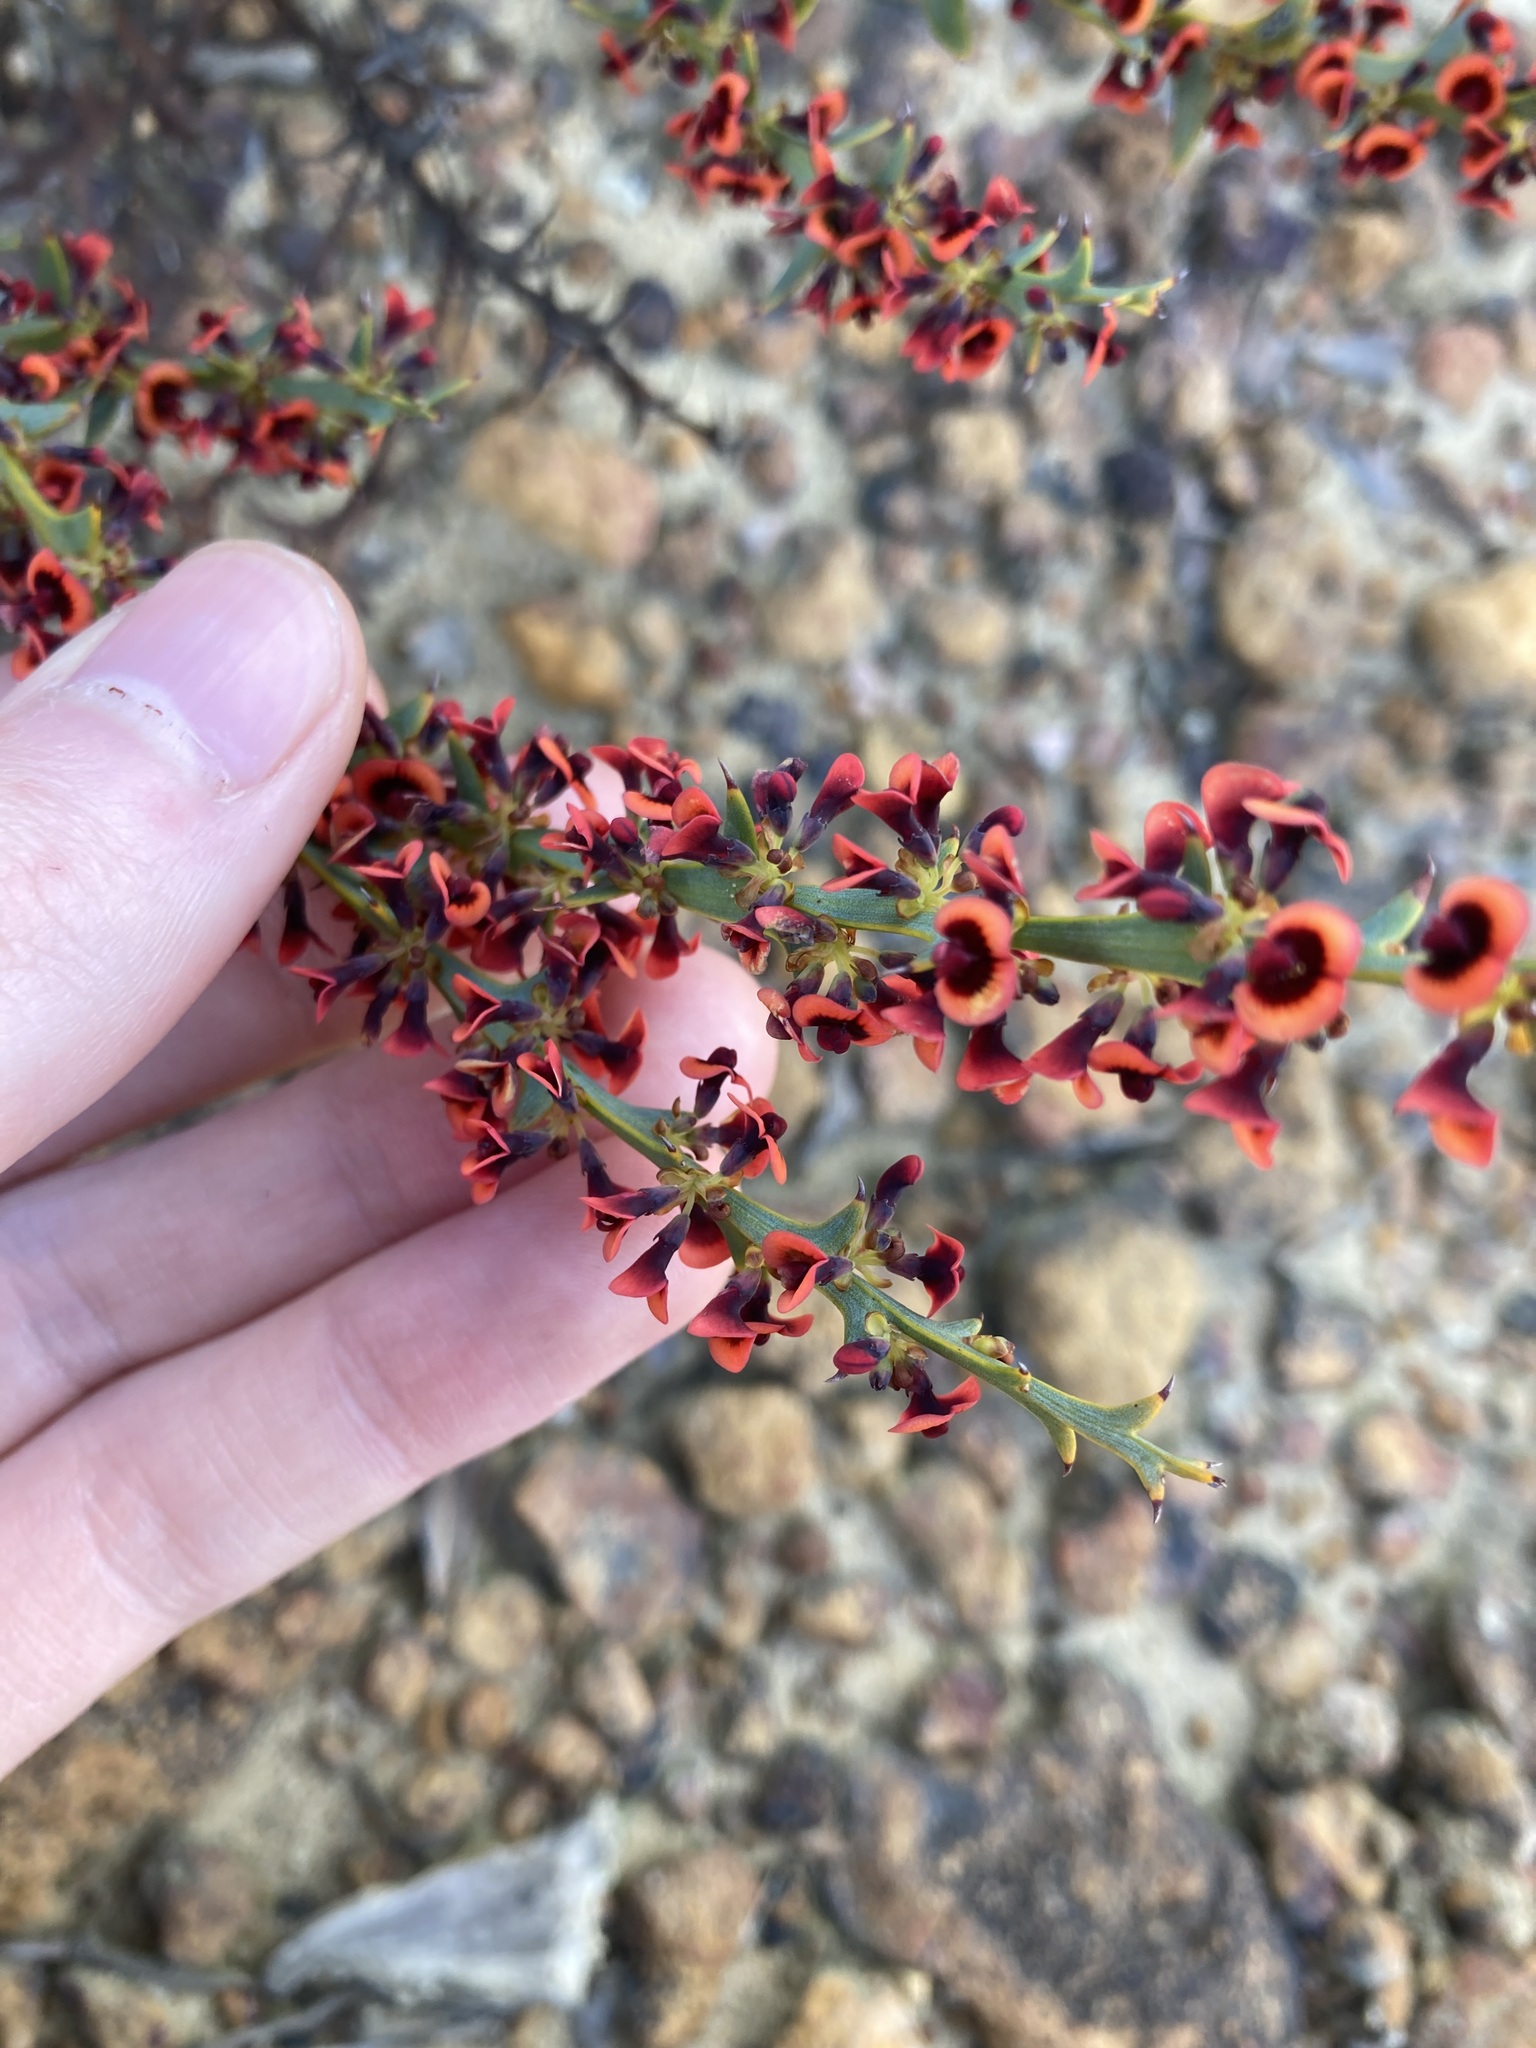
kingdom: Plantae
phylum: Tracheophyta
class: Magnoliopsida
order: Fabales
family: Fabaceae
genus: Daviesia
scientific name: Daviesia decurrens
